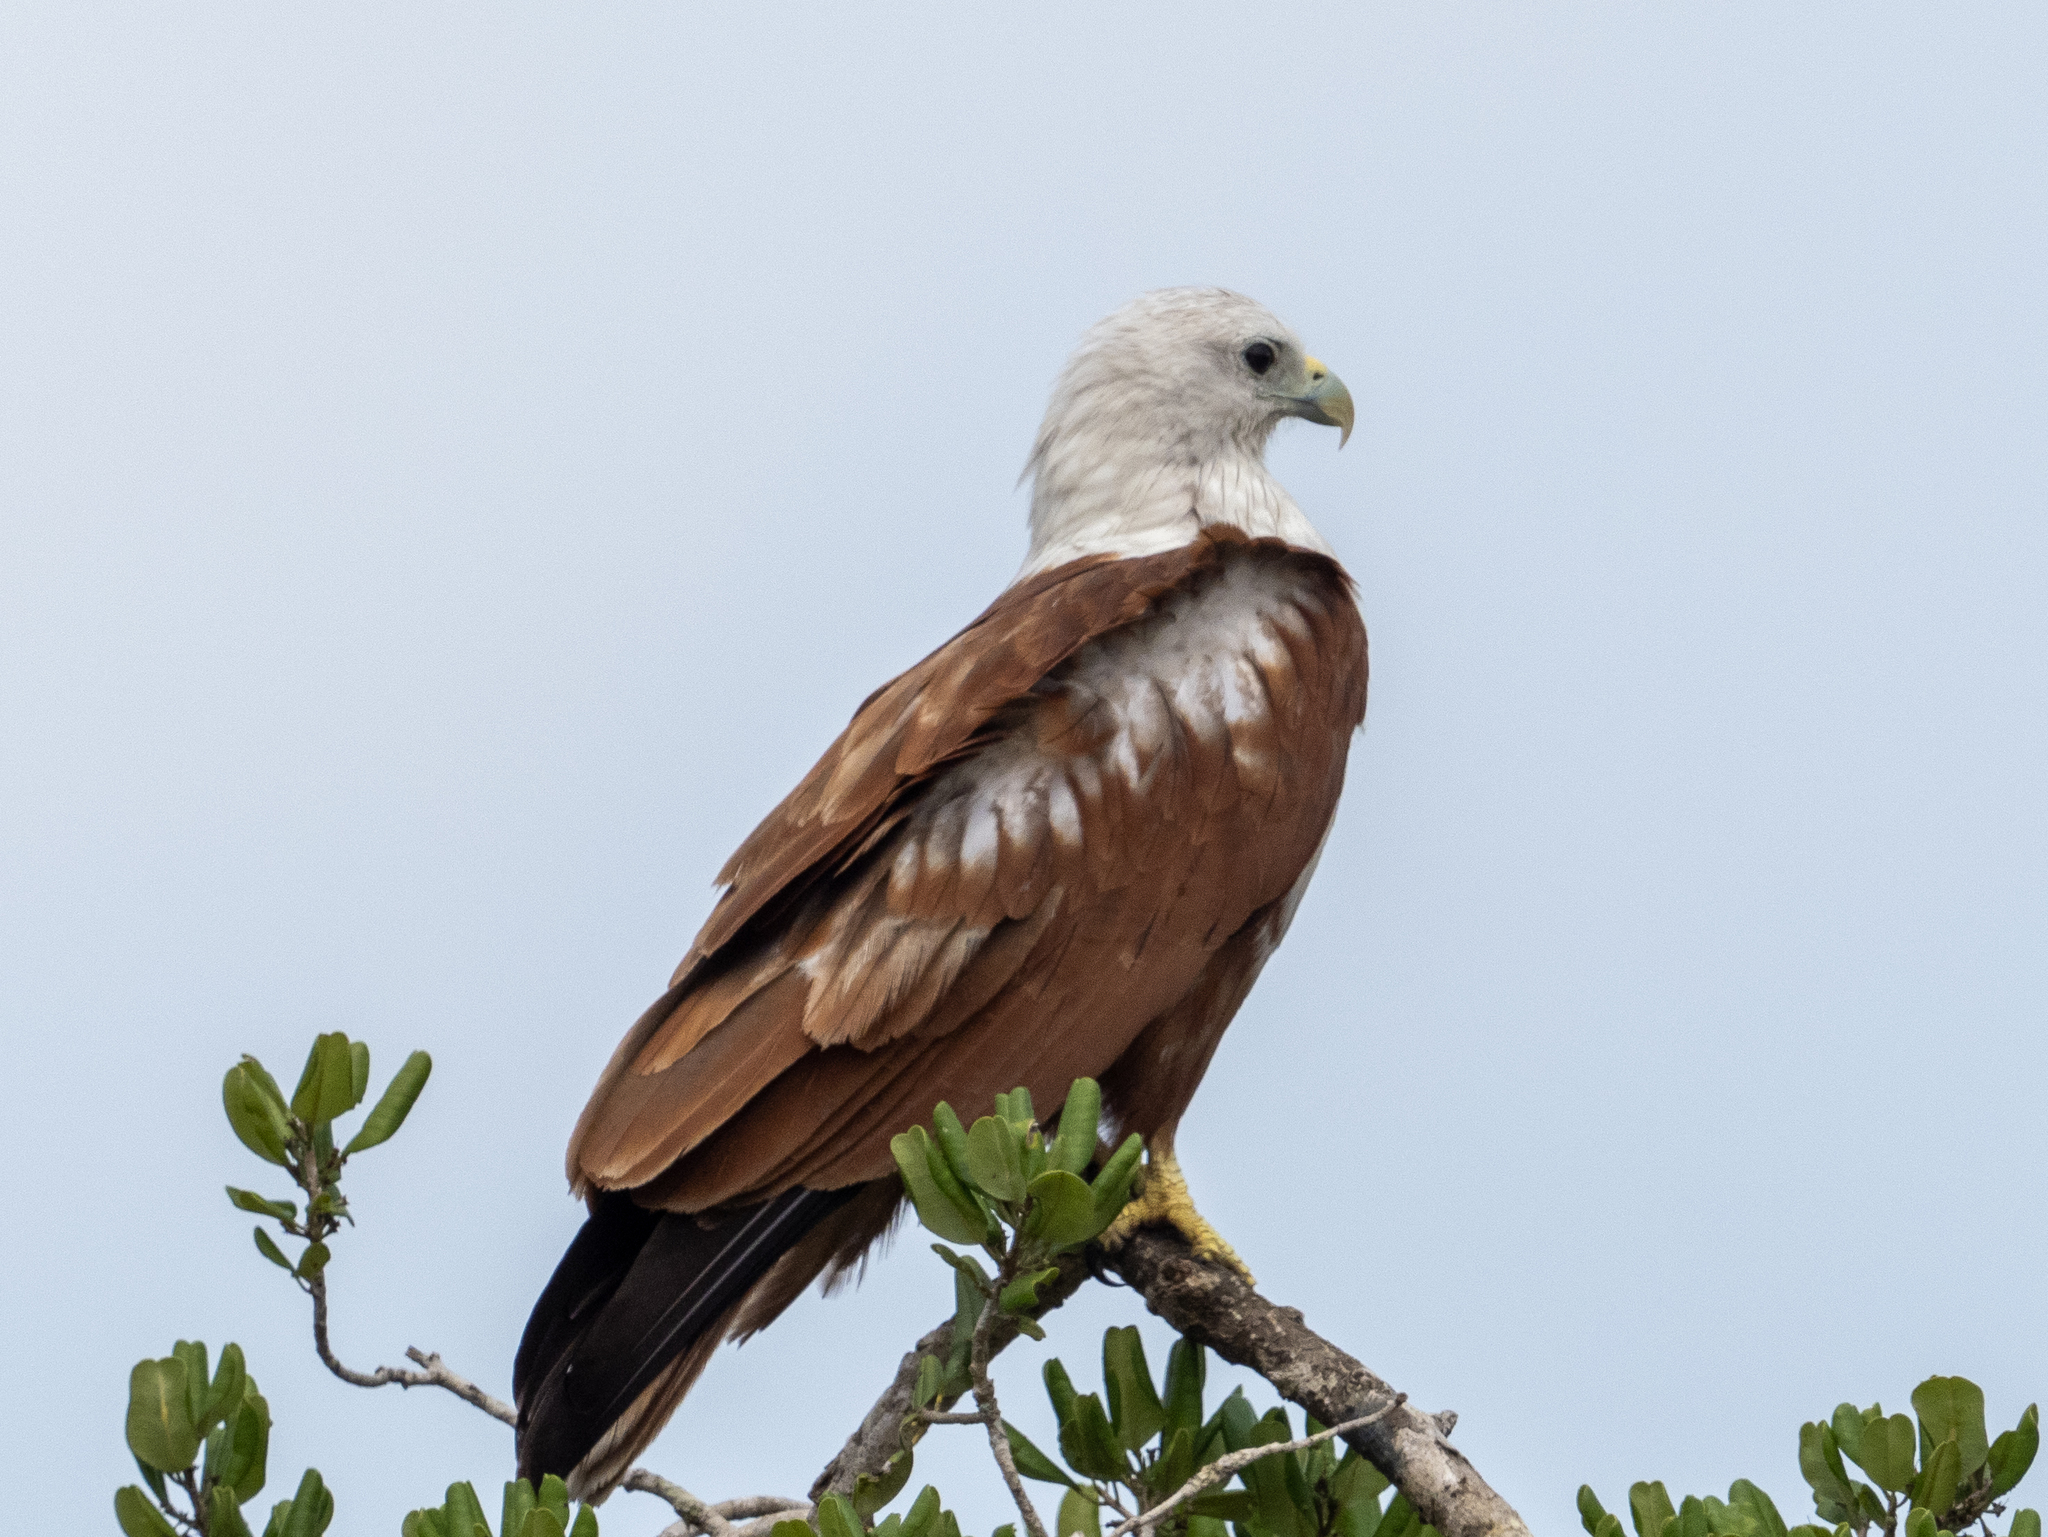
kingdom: Animalia
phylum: Chordata
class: Aves
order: Accipitriformes
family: Accipitridae
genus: Haliastur
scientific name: Haliastur indus
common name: Brahminy kite
